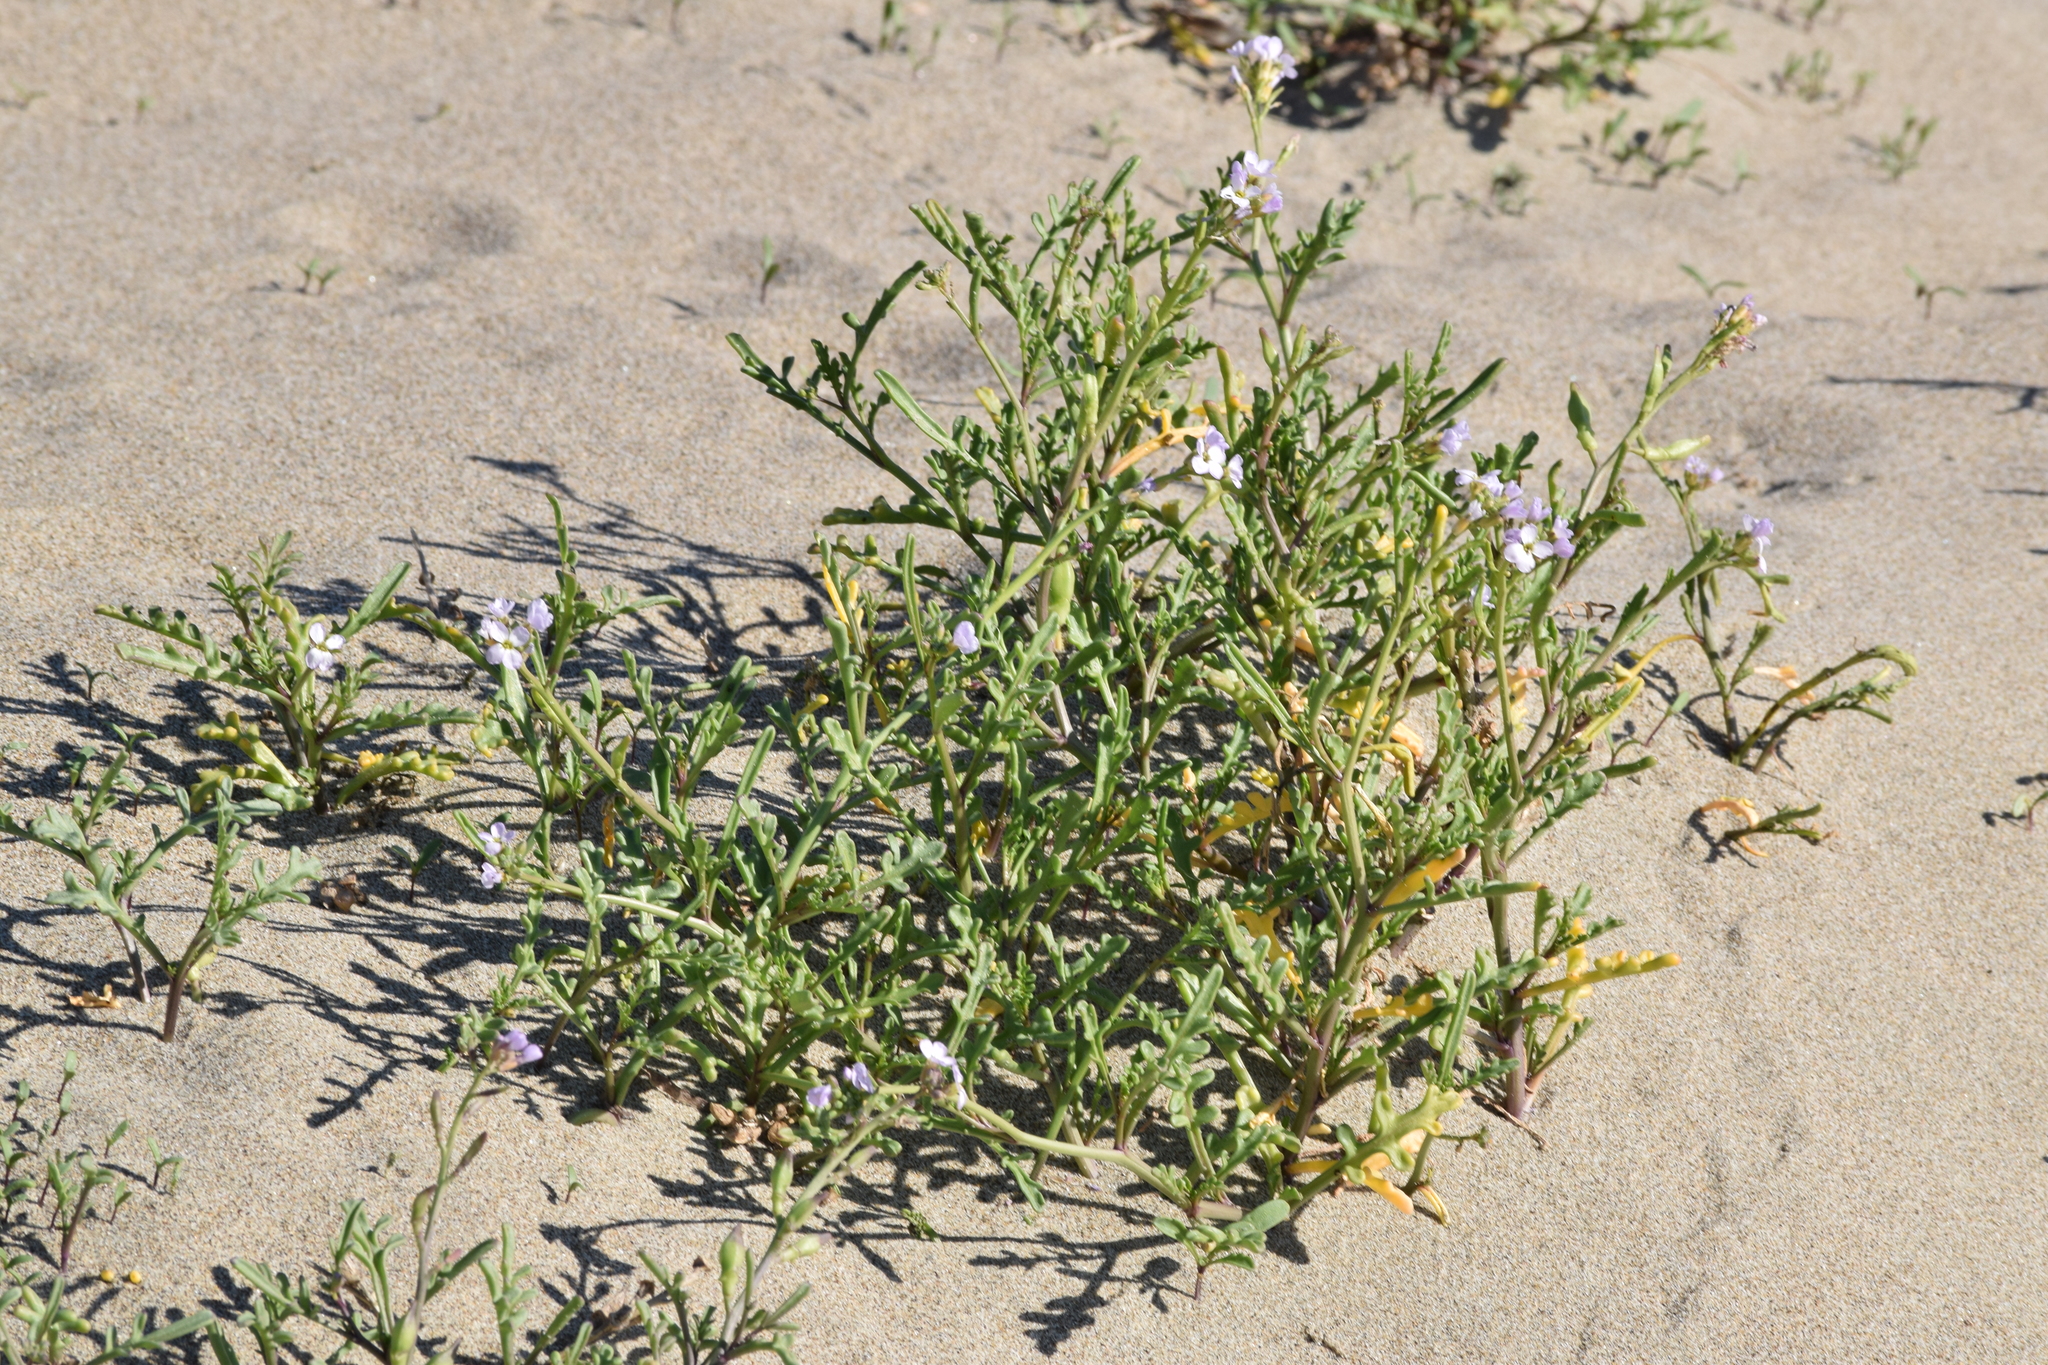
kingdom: Plantae
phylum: Tracheophyta
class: Magnoliopsida
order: Brassicales
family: Brassicaceae
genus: Cakile
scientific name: Cakile maritima
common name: Sea rocket
